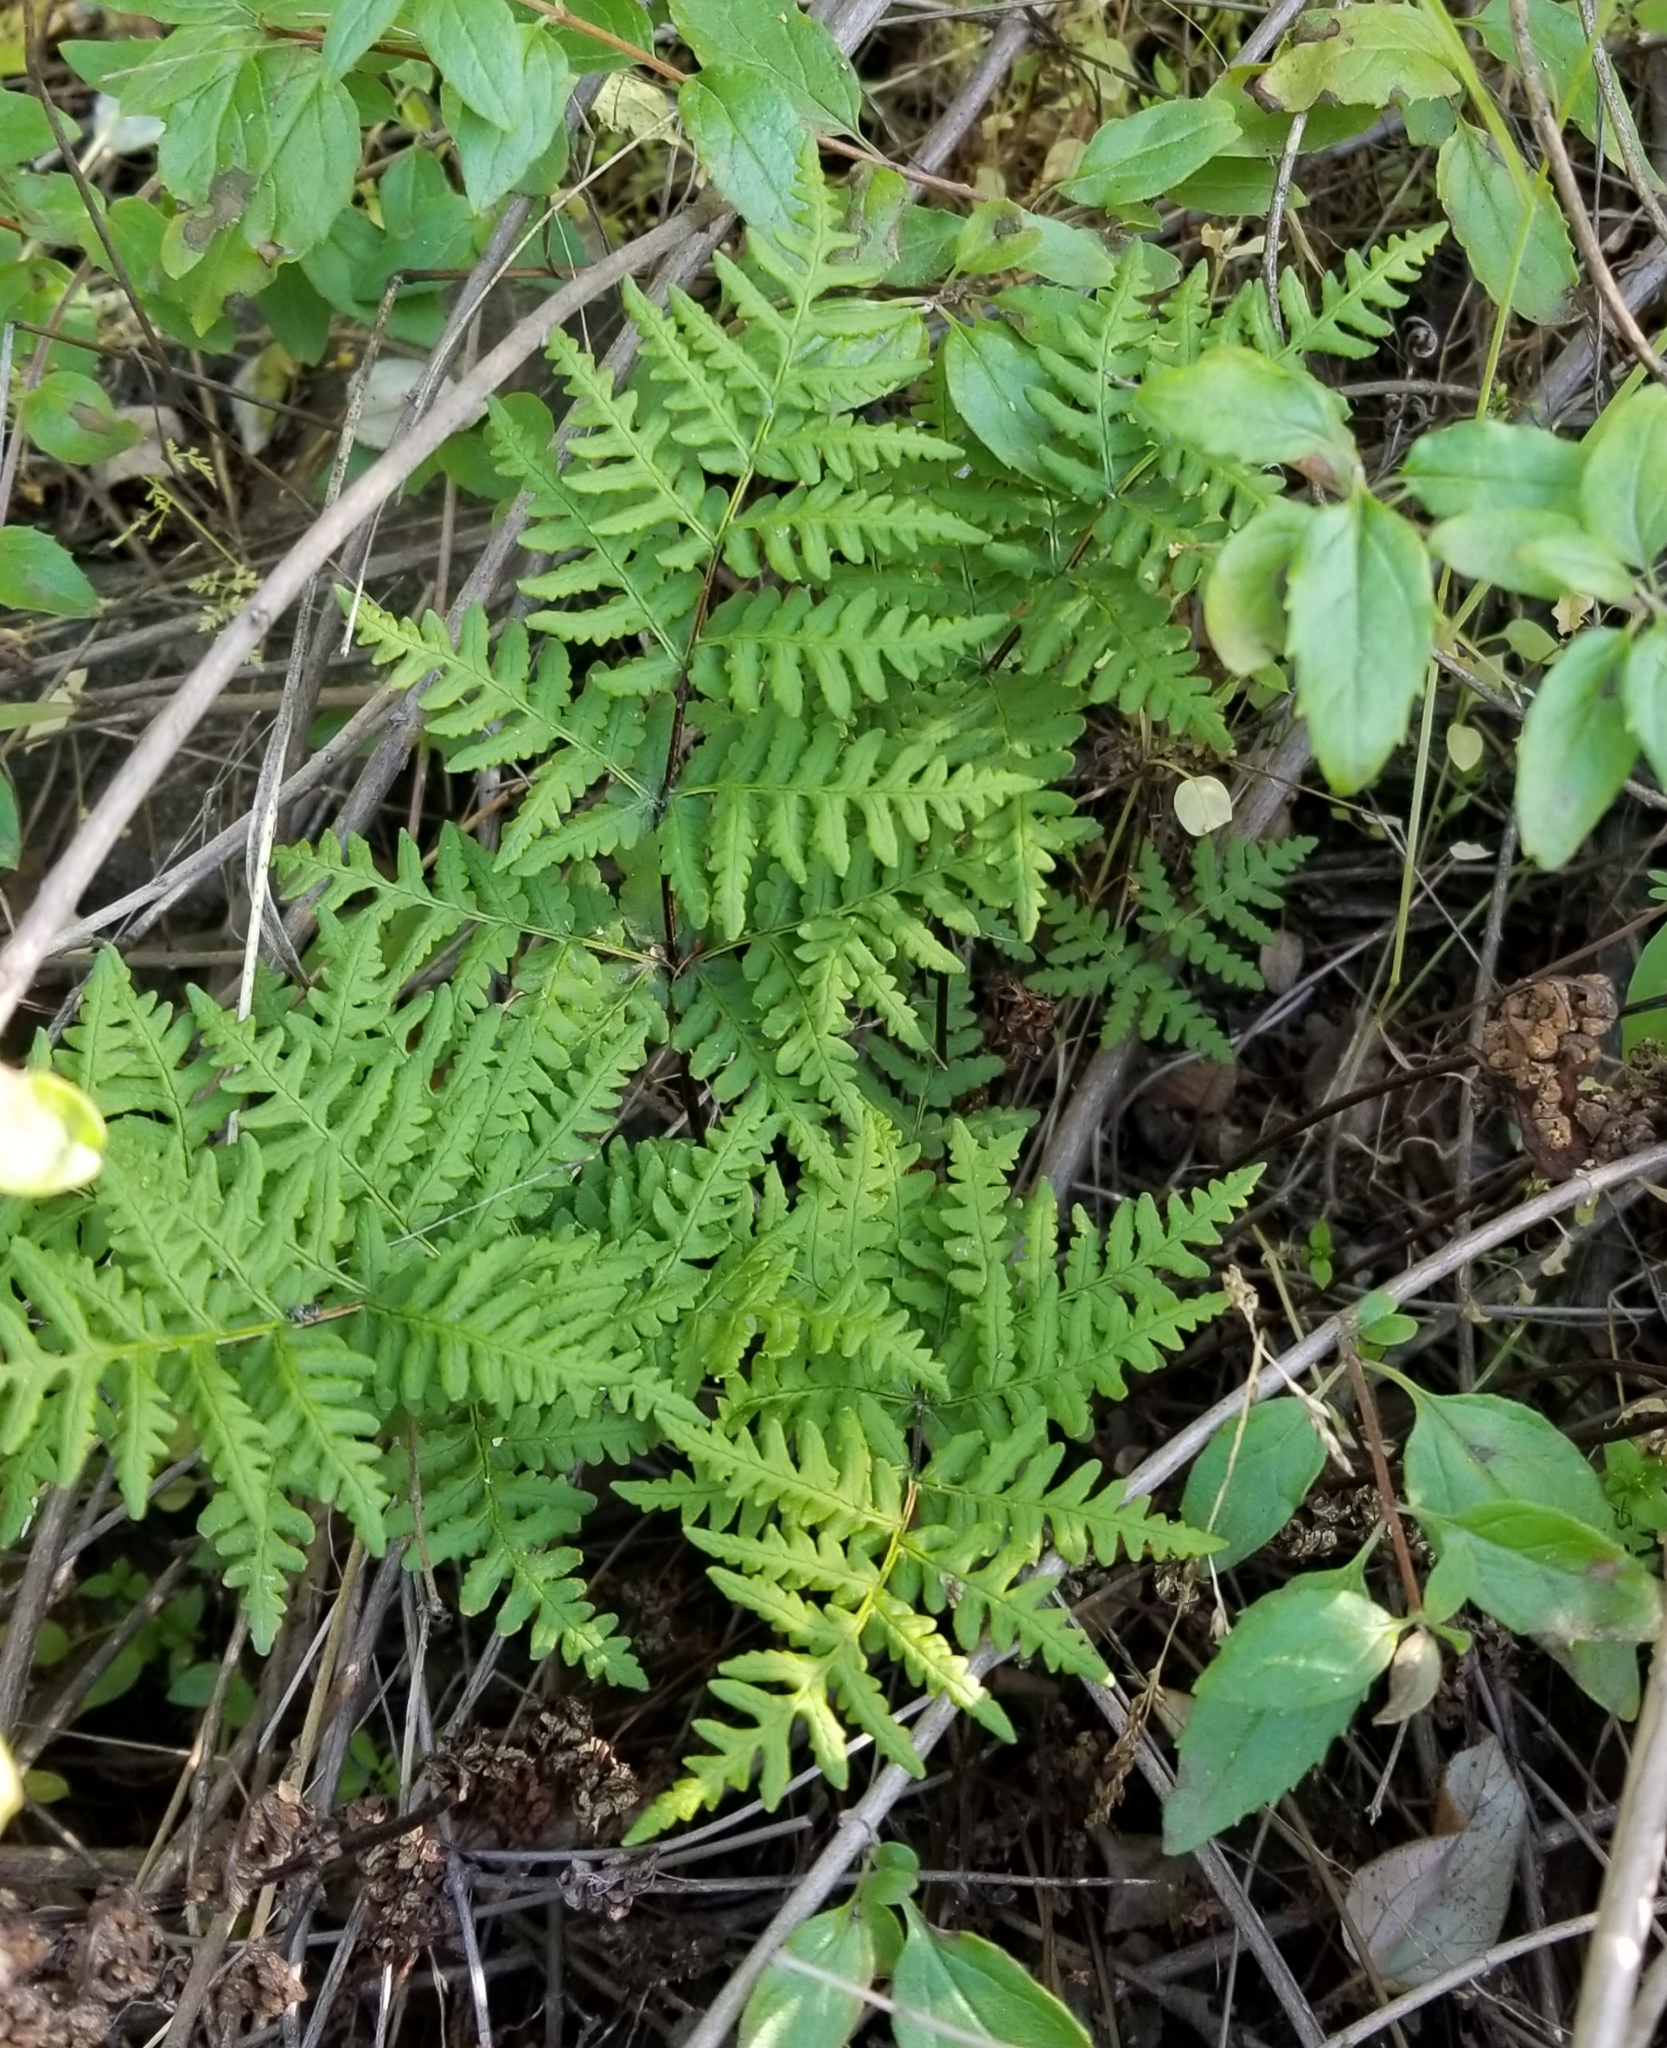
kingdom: Plantae
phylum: Tracheophyta
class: Polypodiopsida
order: Polypodiales
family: Pteridaceae
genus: Pentagramma
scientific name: Pentagramma triangularis
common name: Gold fern
